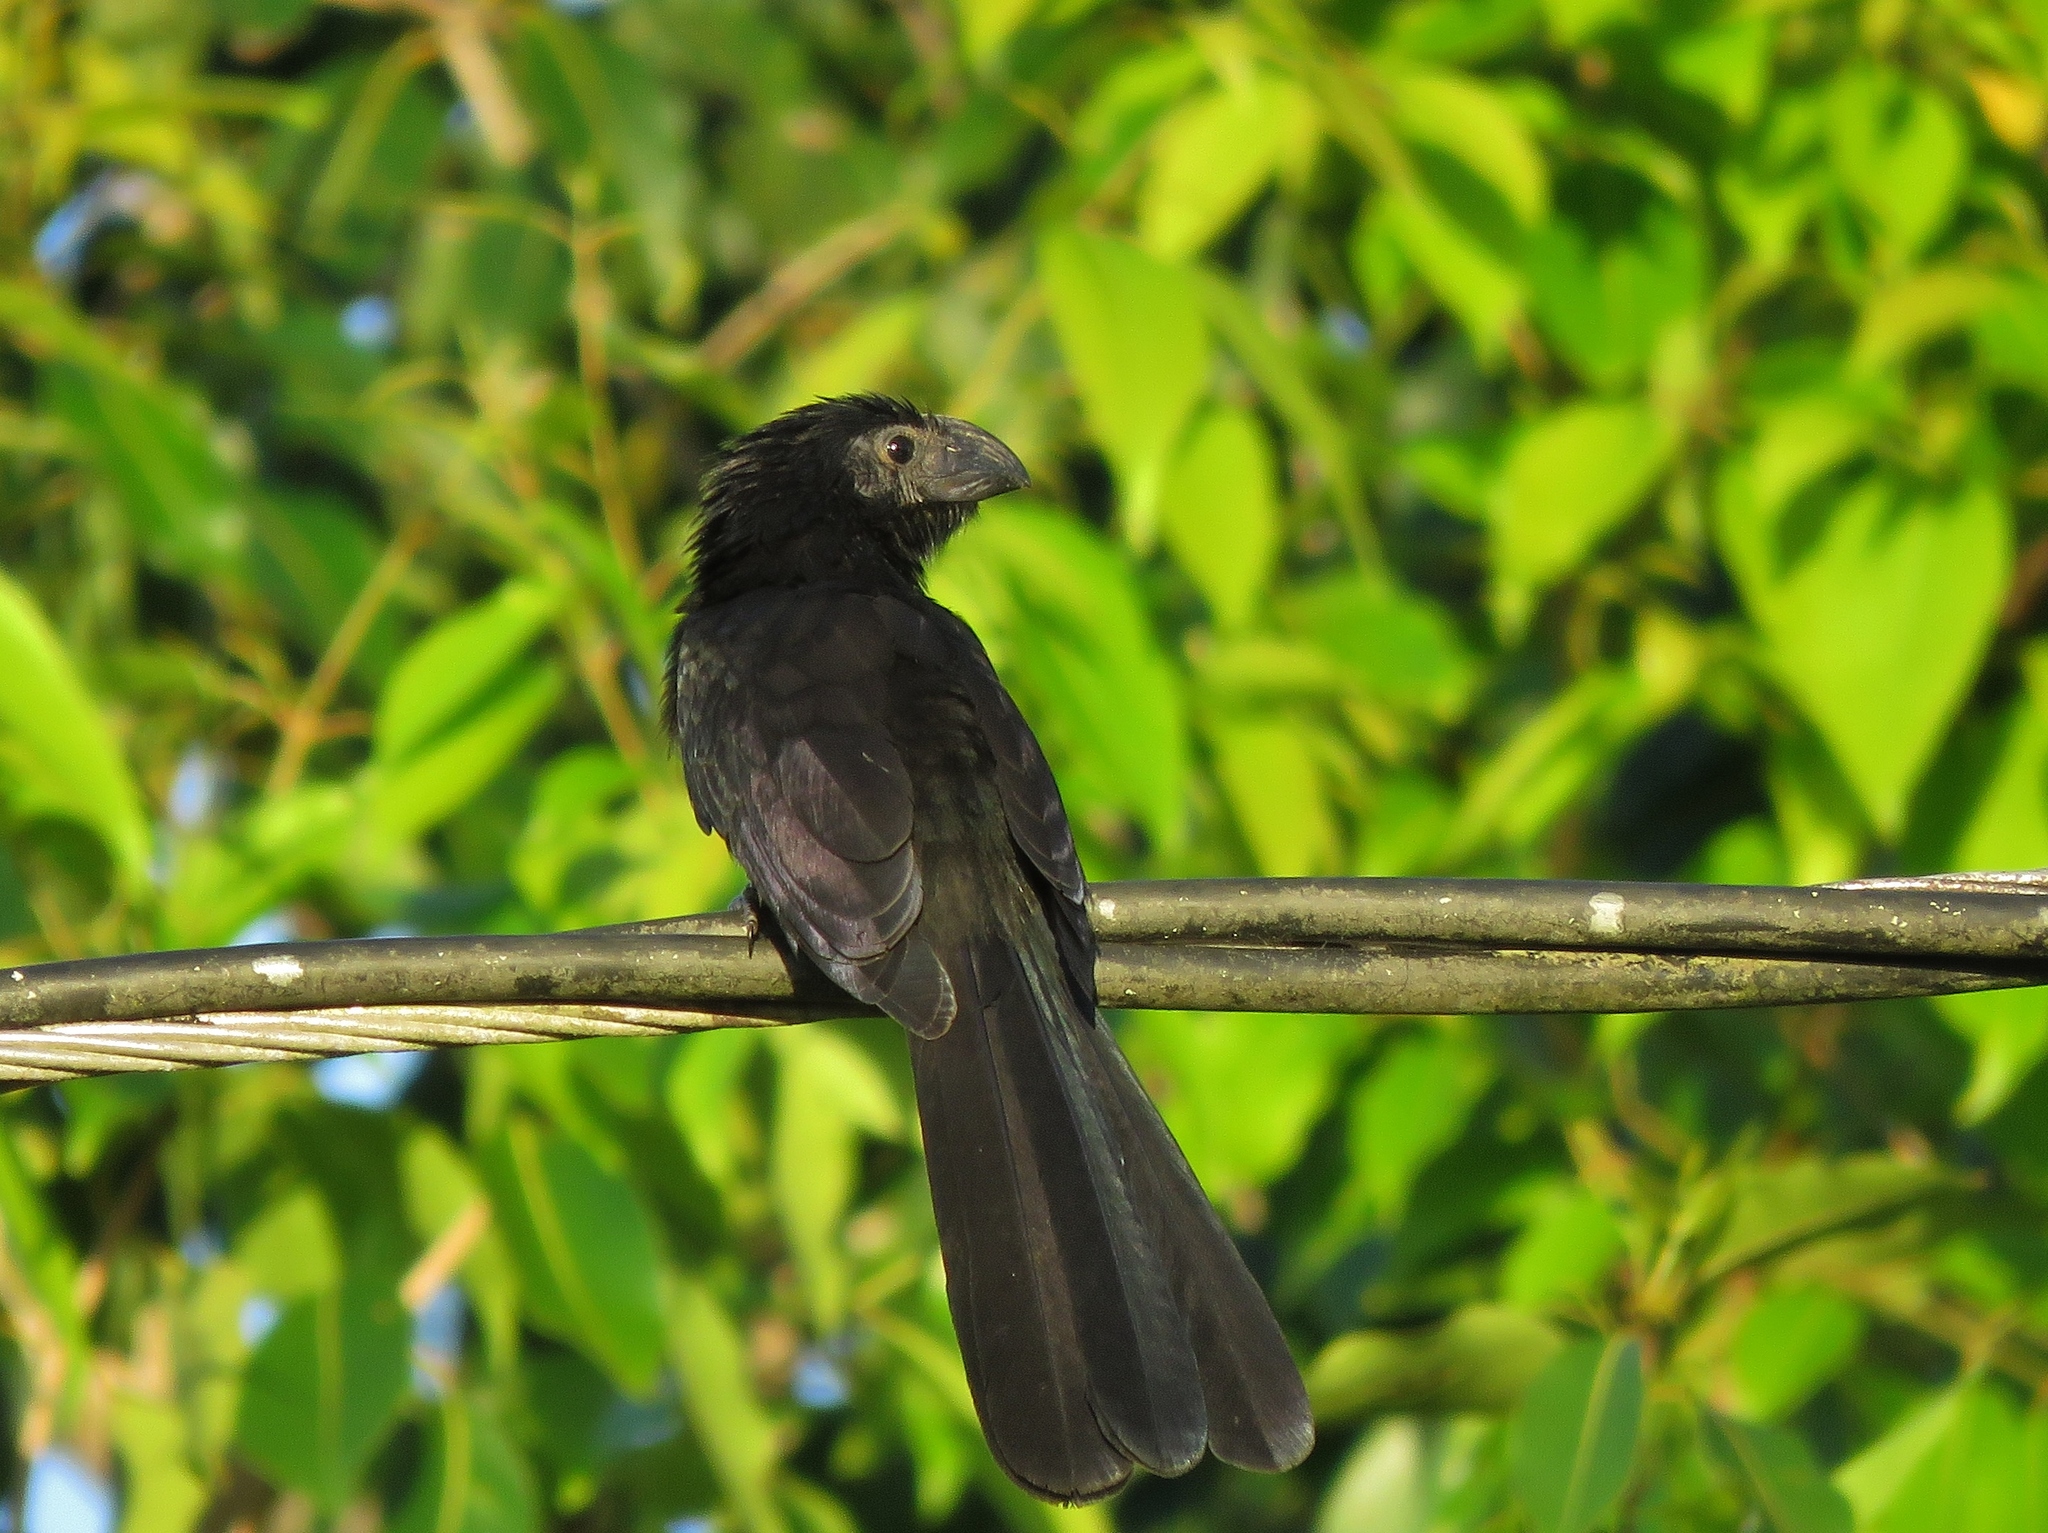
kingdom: Animalia
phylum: Chordata
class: Aves
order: Cuculiformes
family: Cuculidae
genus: Crotophaga
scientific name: Crotophaga sulcirostris
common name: Groove-billed ani
